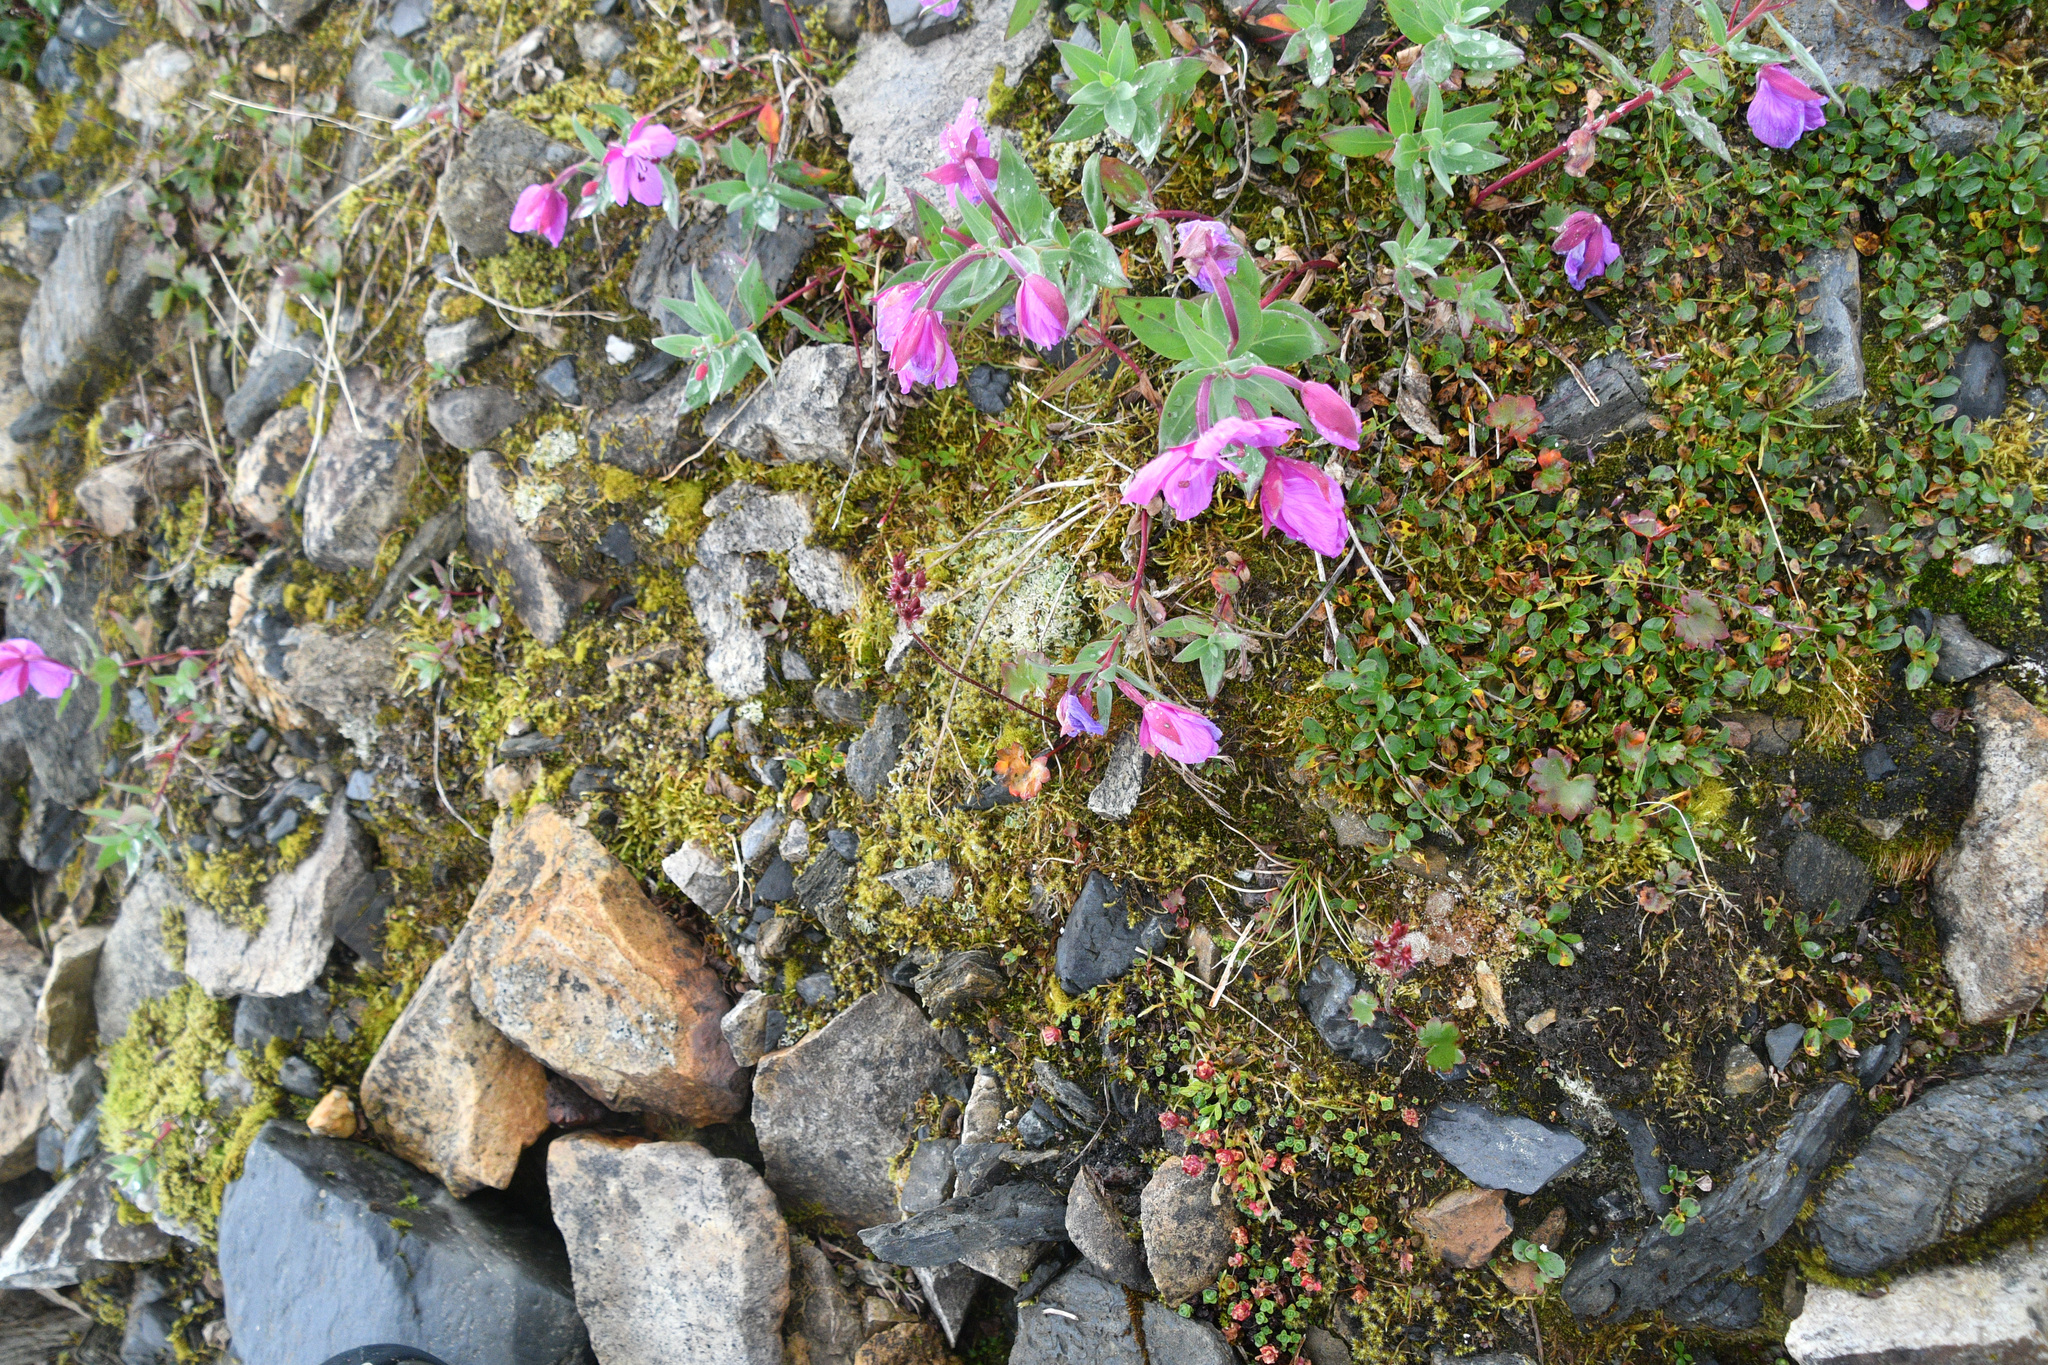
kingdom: Plantae
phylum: Tracheophyta
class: Magnoliopsida
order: Myrtales
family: Onagraceae
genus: Chamaenerion
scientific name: Chamaenerion latifolium
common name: Dwarf fireweed
